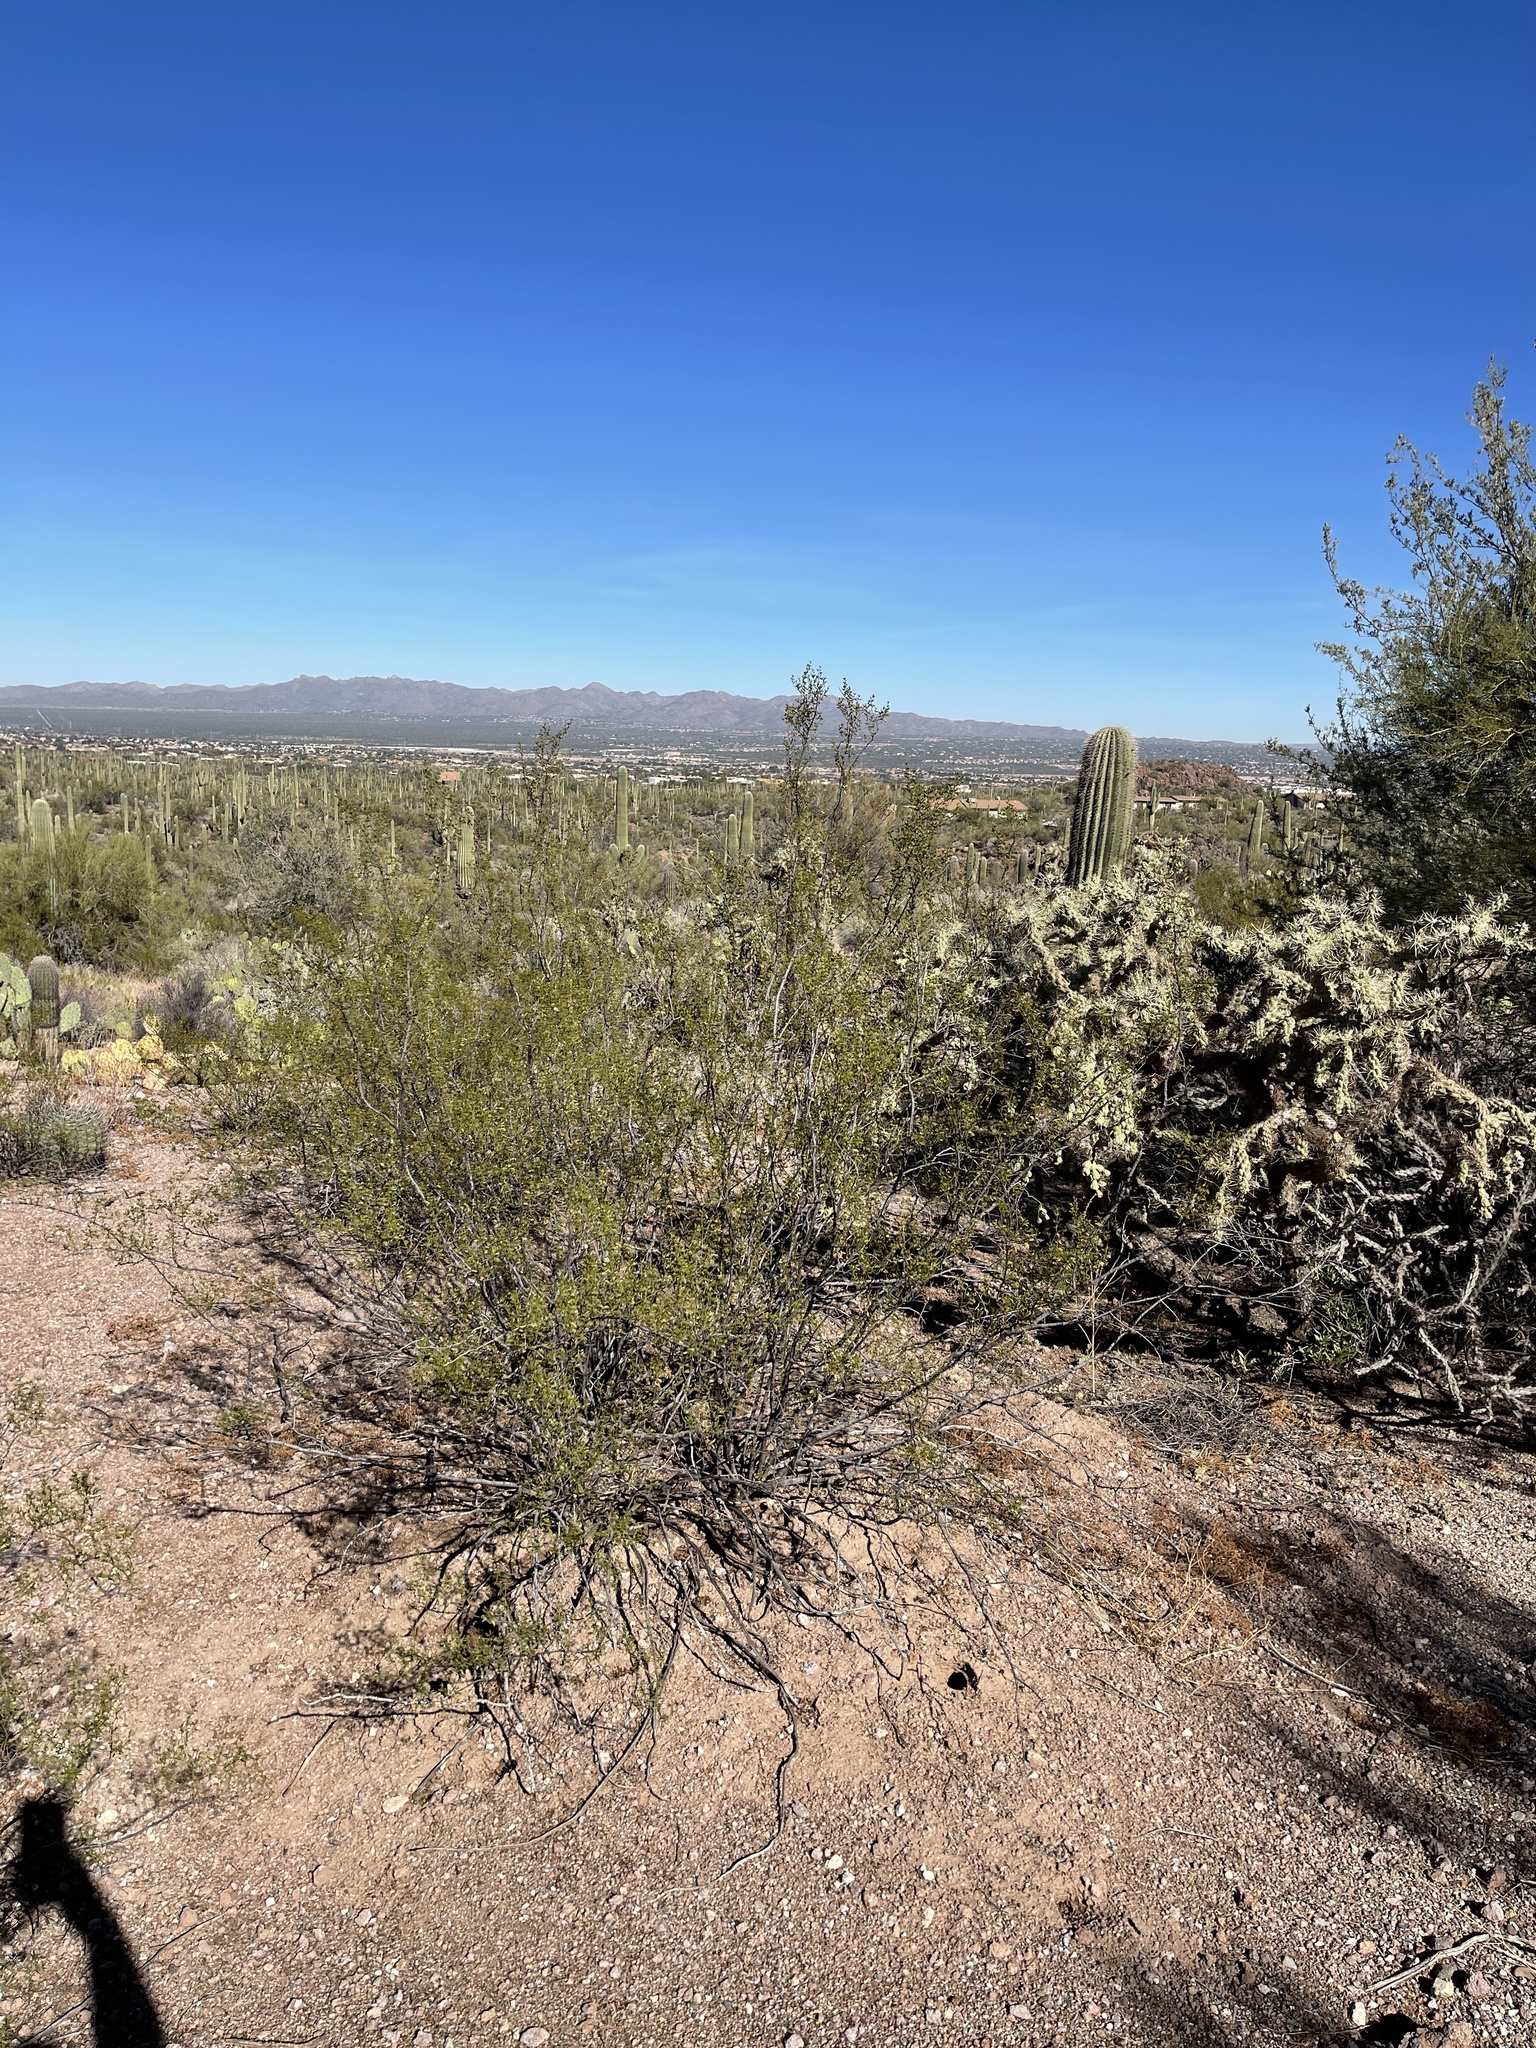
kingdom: Plantae
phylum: Tracheophyta
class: Magnoliopsida
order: Zygophyllales
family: Zygophyllaceae
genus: Larrea
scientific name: Larrea tridentata
